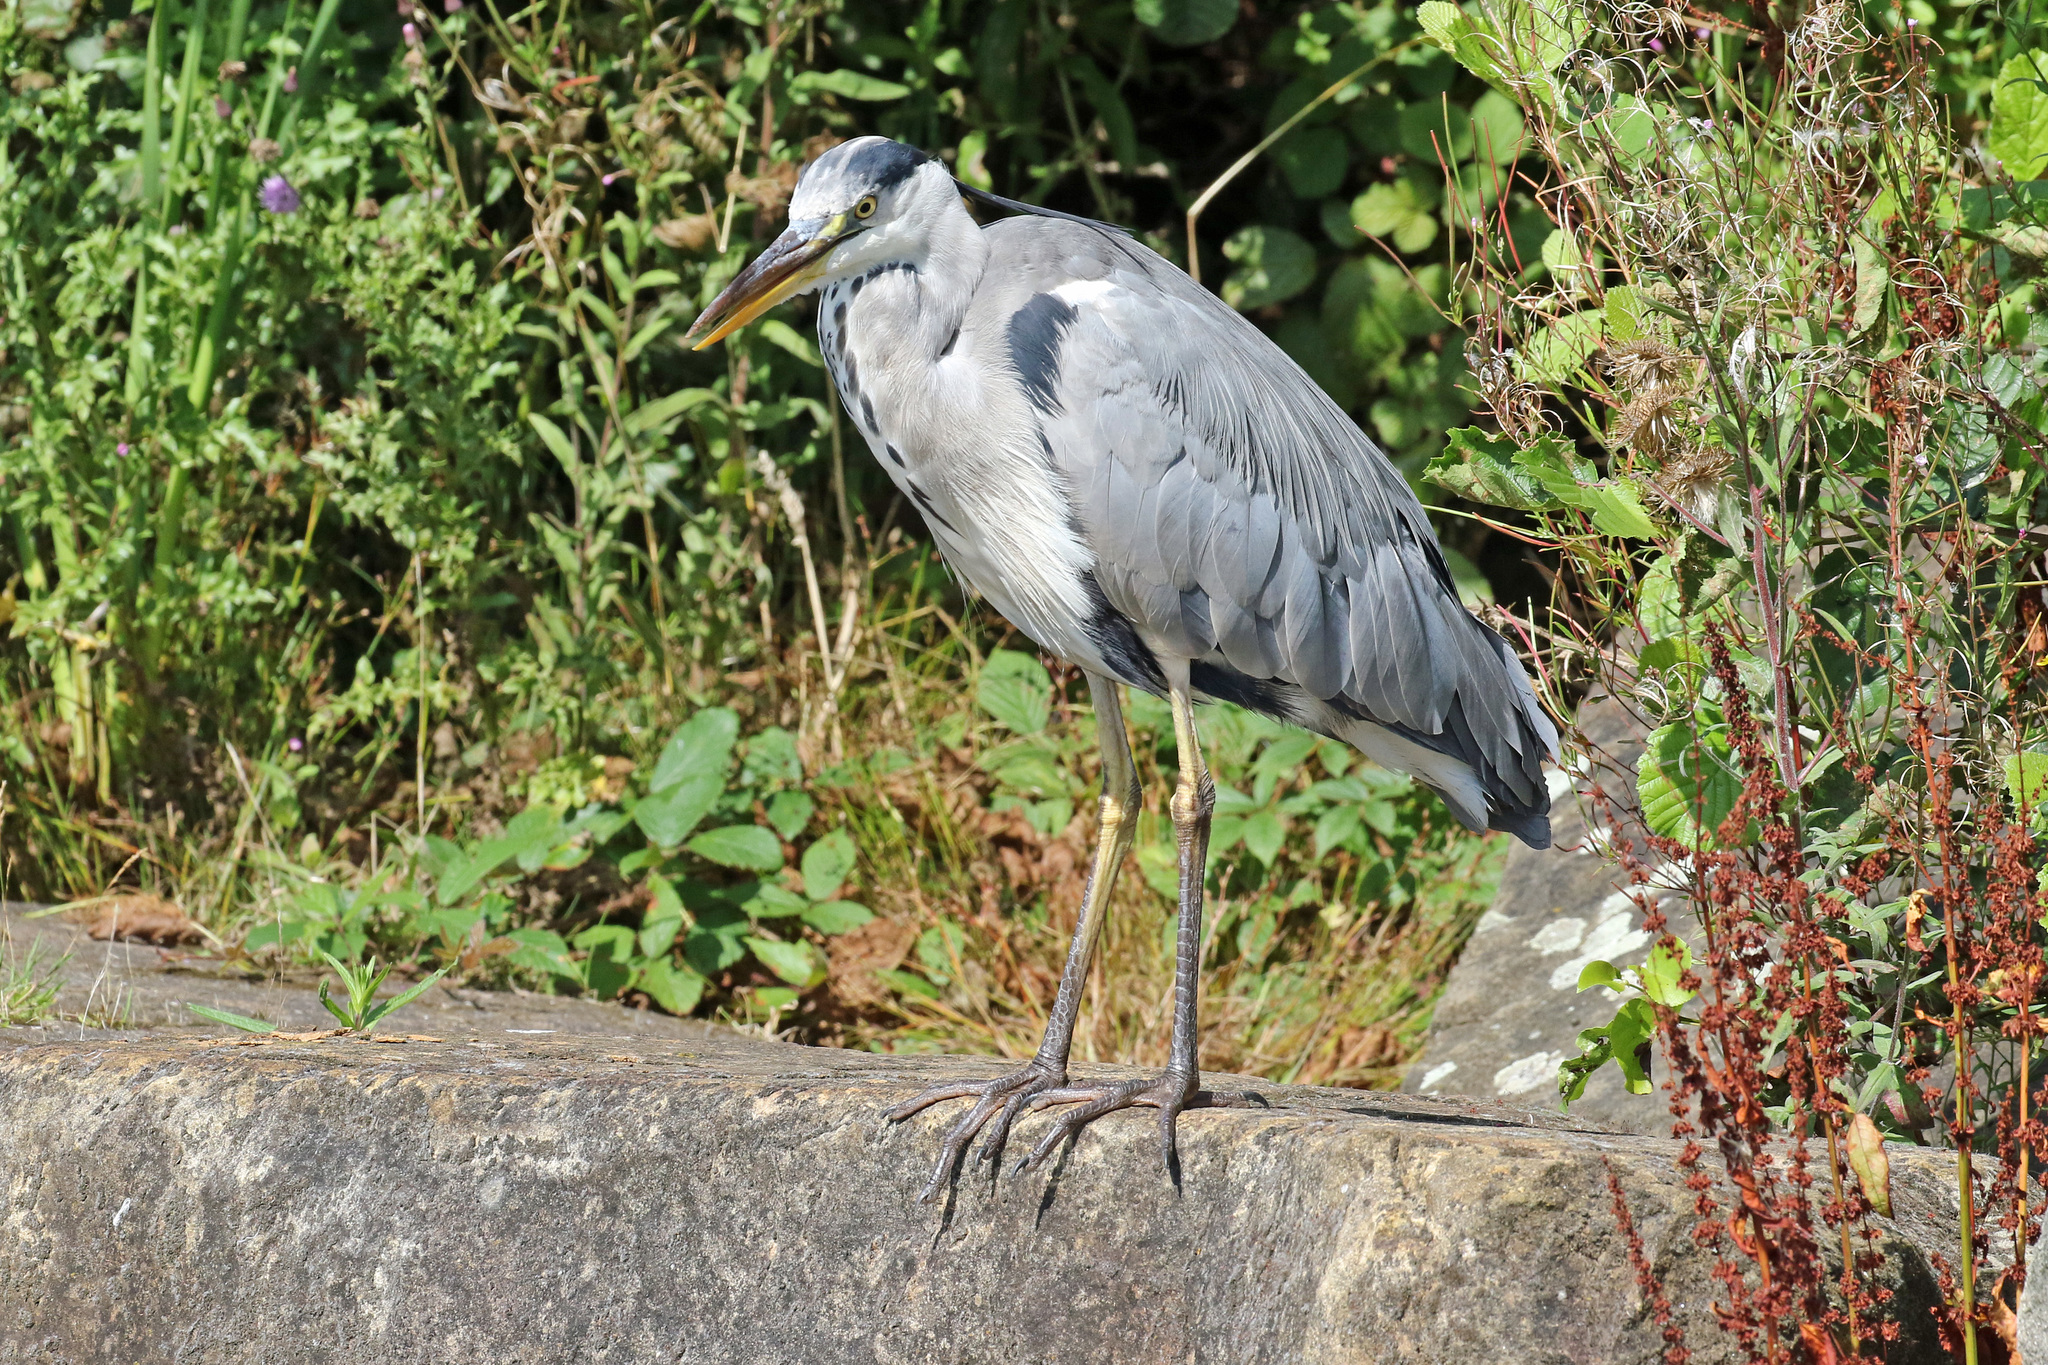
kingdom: Animalia
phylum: Chordata
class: Aves
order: Pelecaniformes
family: Ardeidae
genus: Ardea
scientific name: Ardea cinerea
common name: Grey heron
